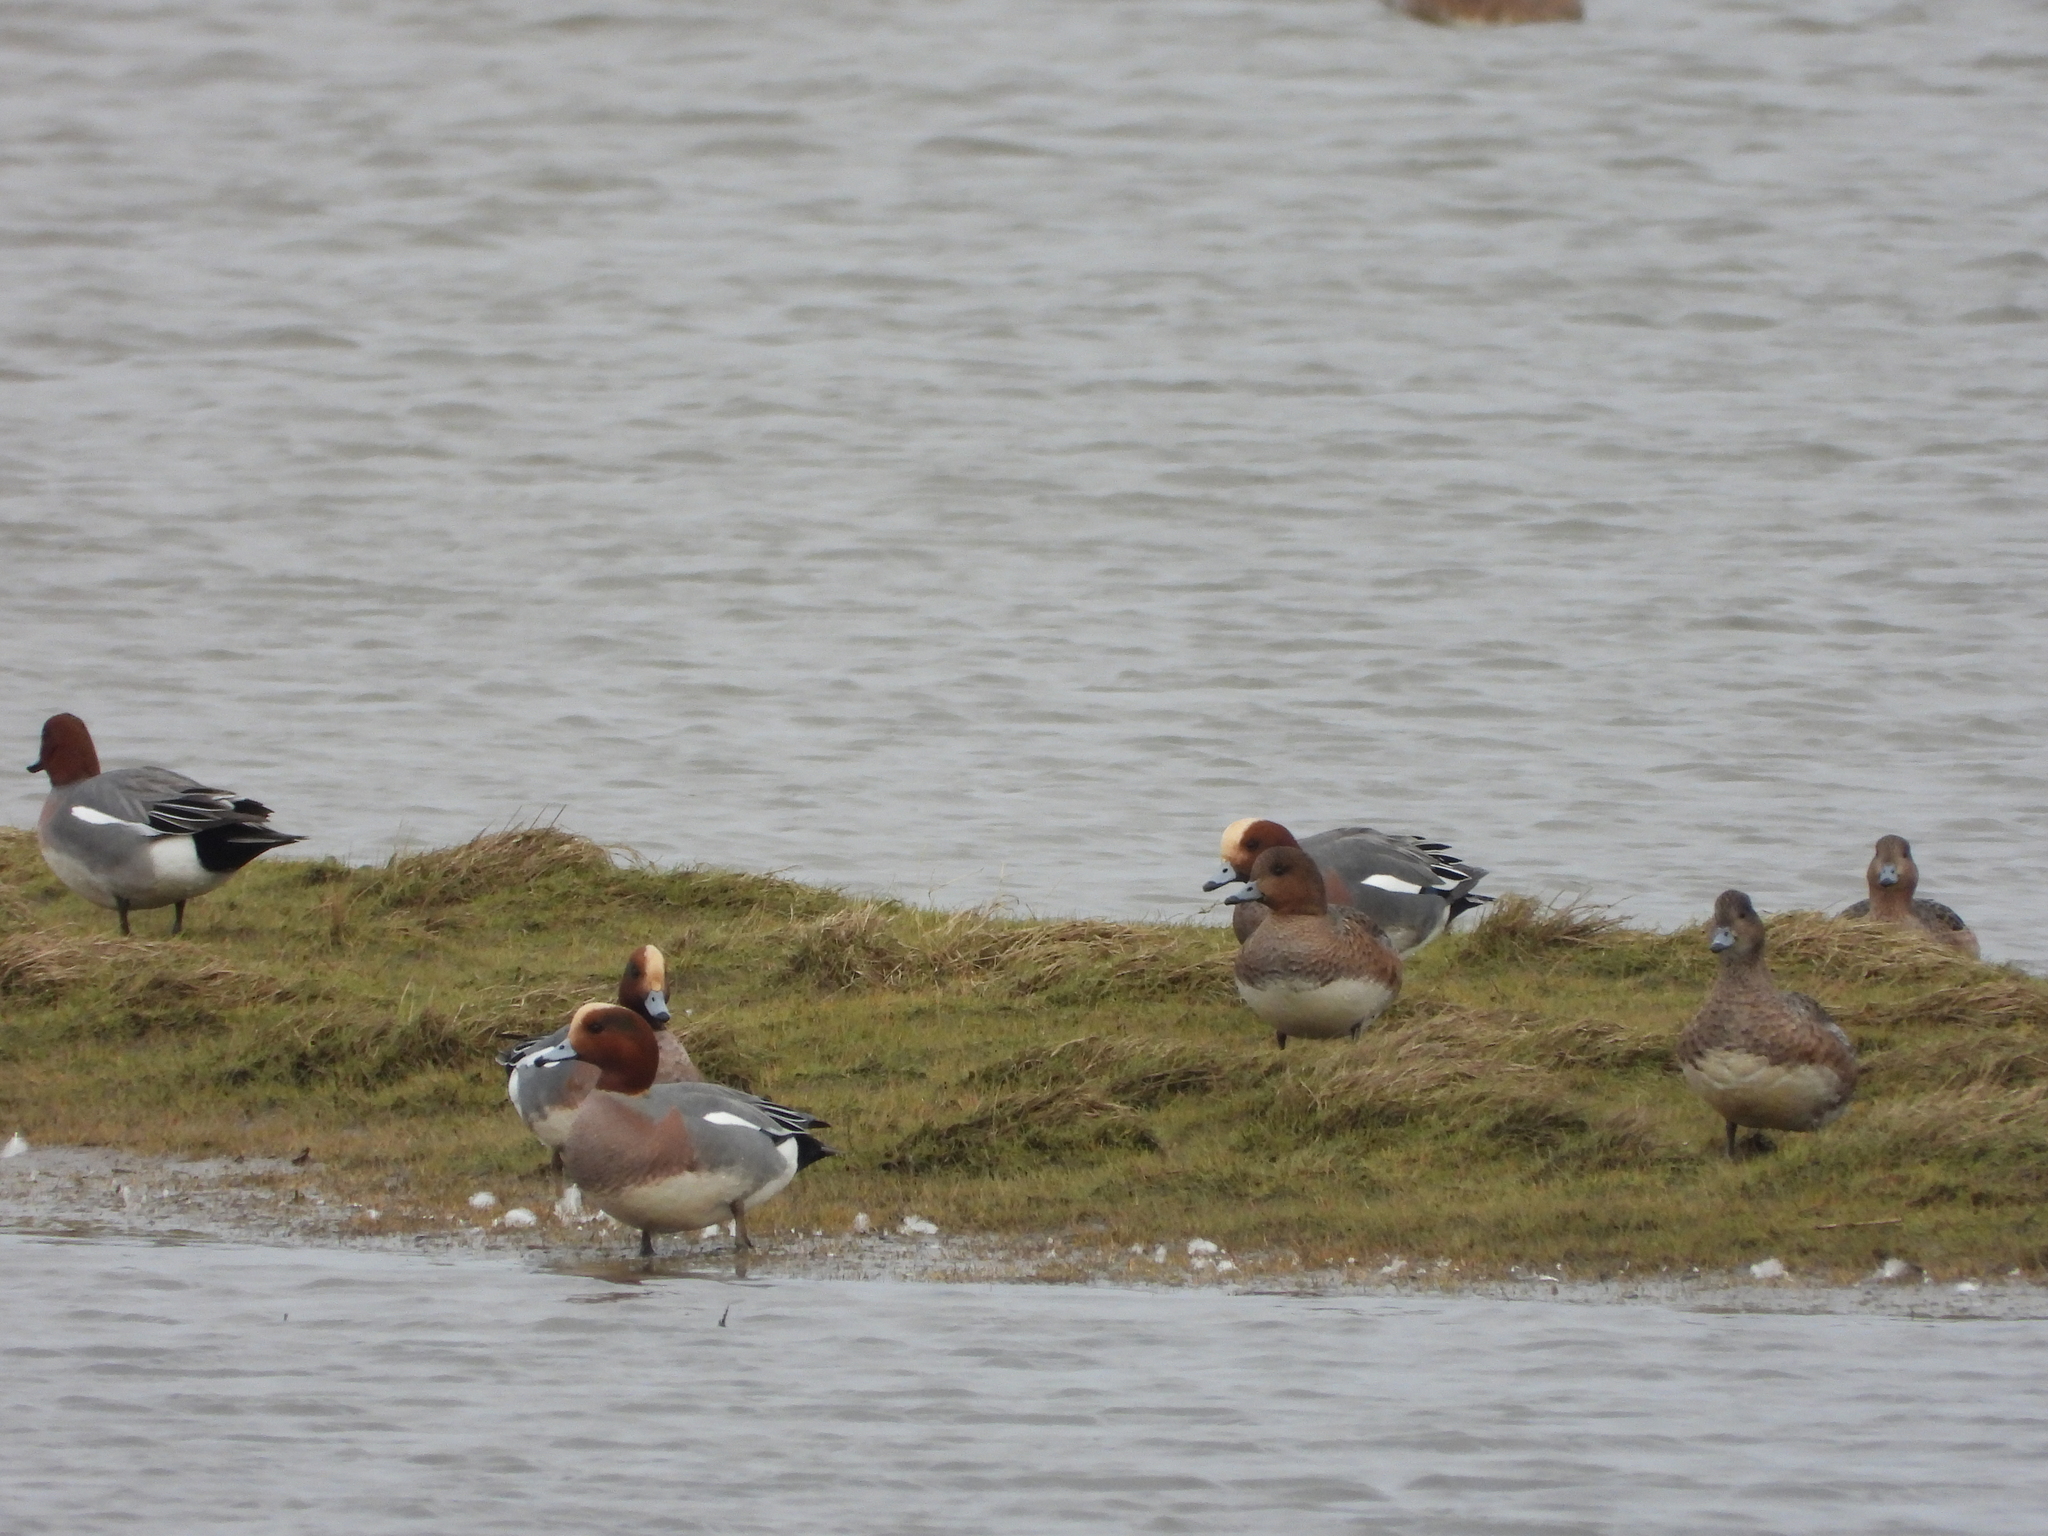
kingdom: Animalia
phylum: Chordata
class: Aves
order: Anseriformes
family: Anatidae
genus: Mareca
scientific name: Mareca penelope
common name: Eurasian wigeon
